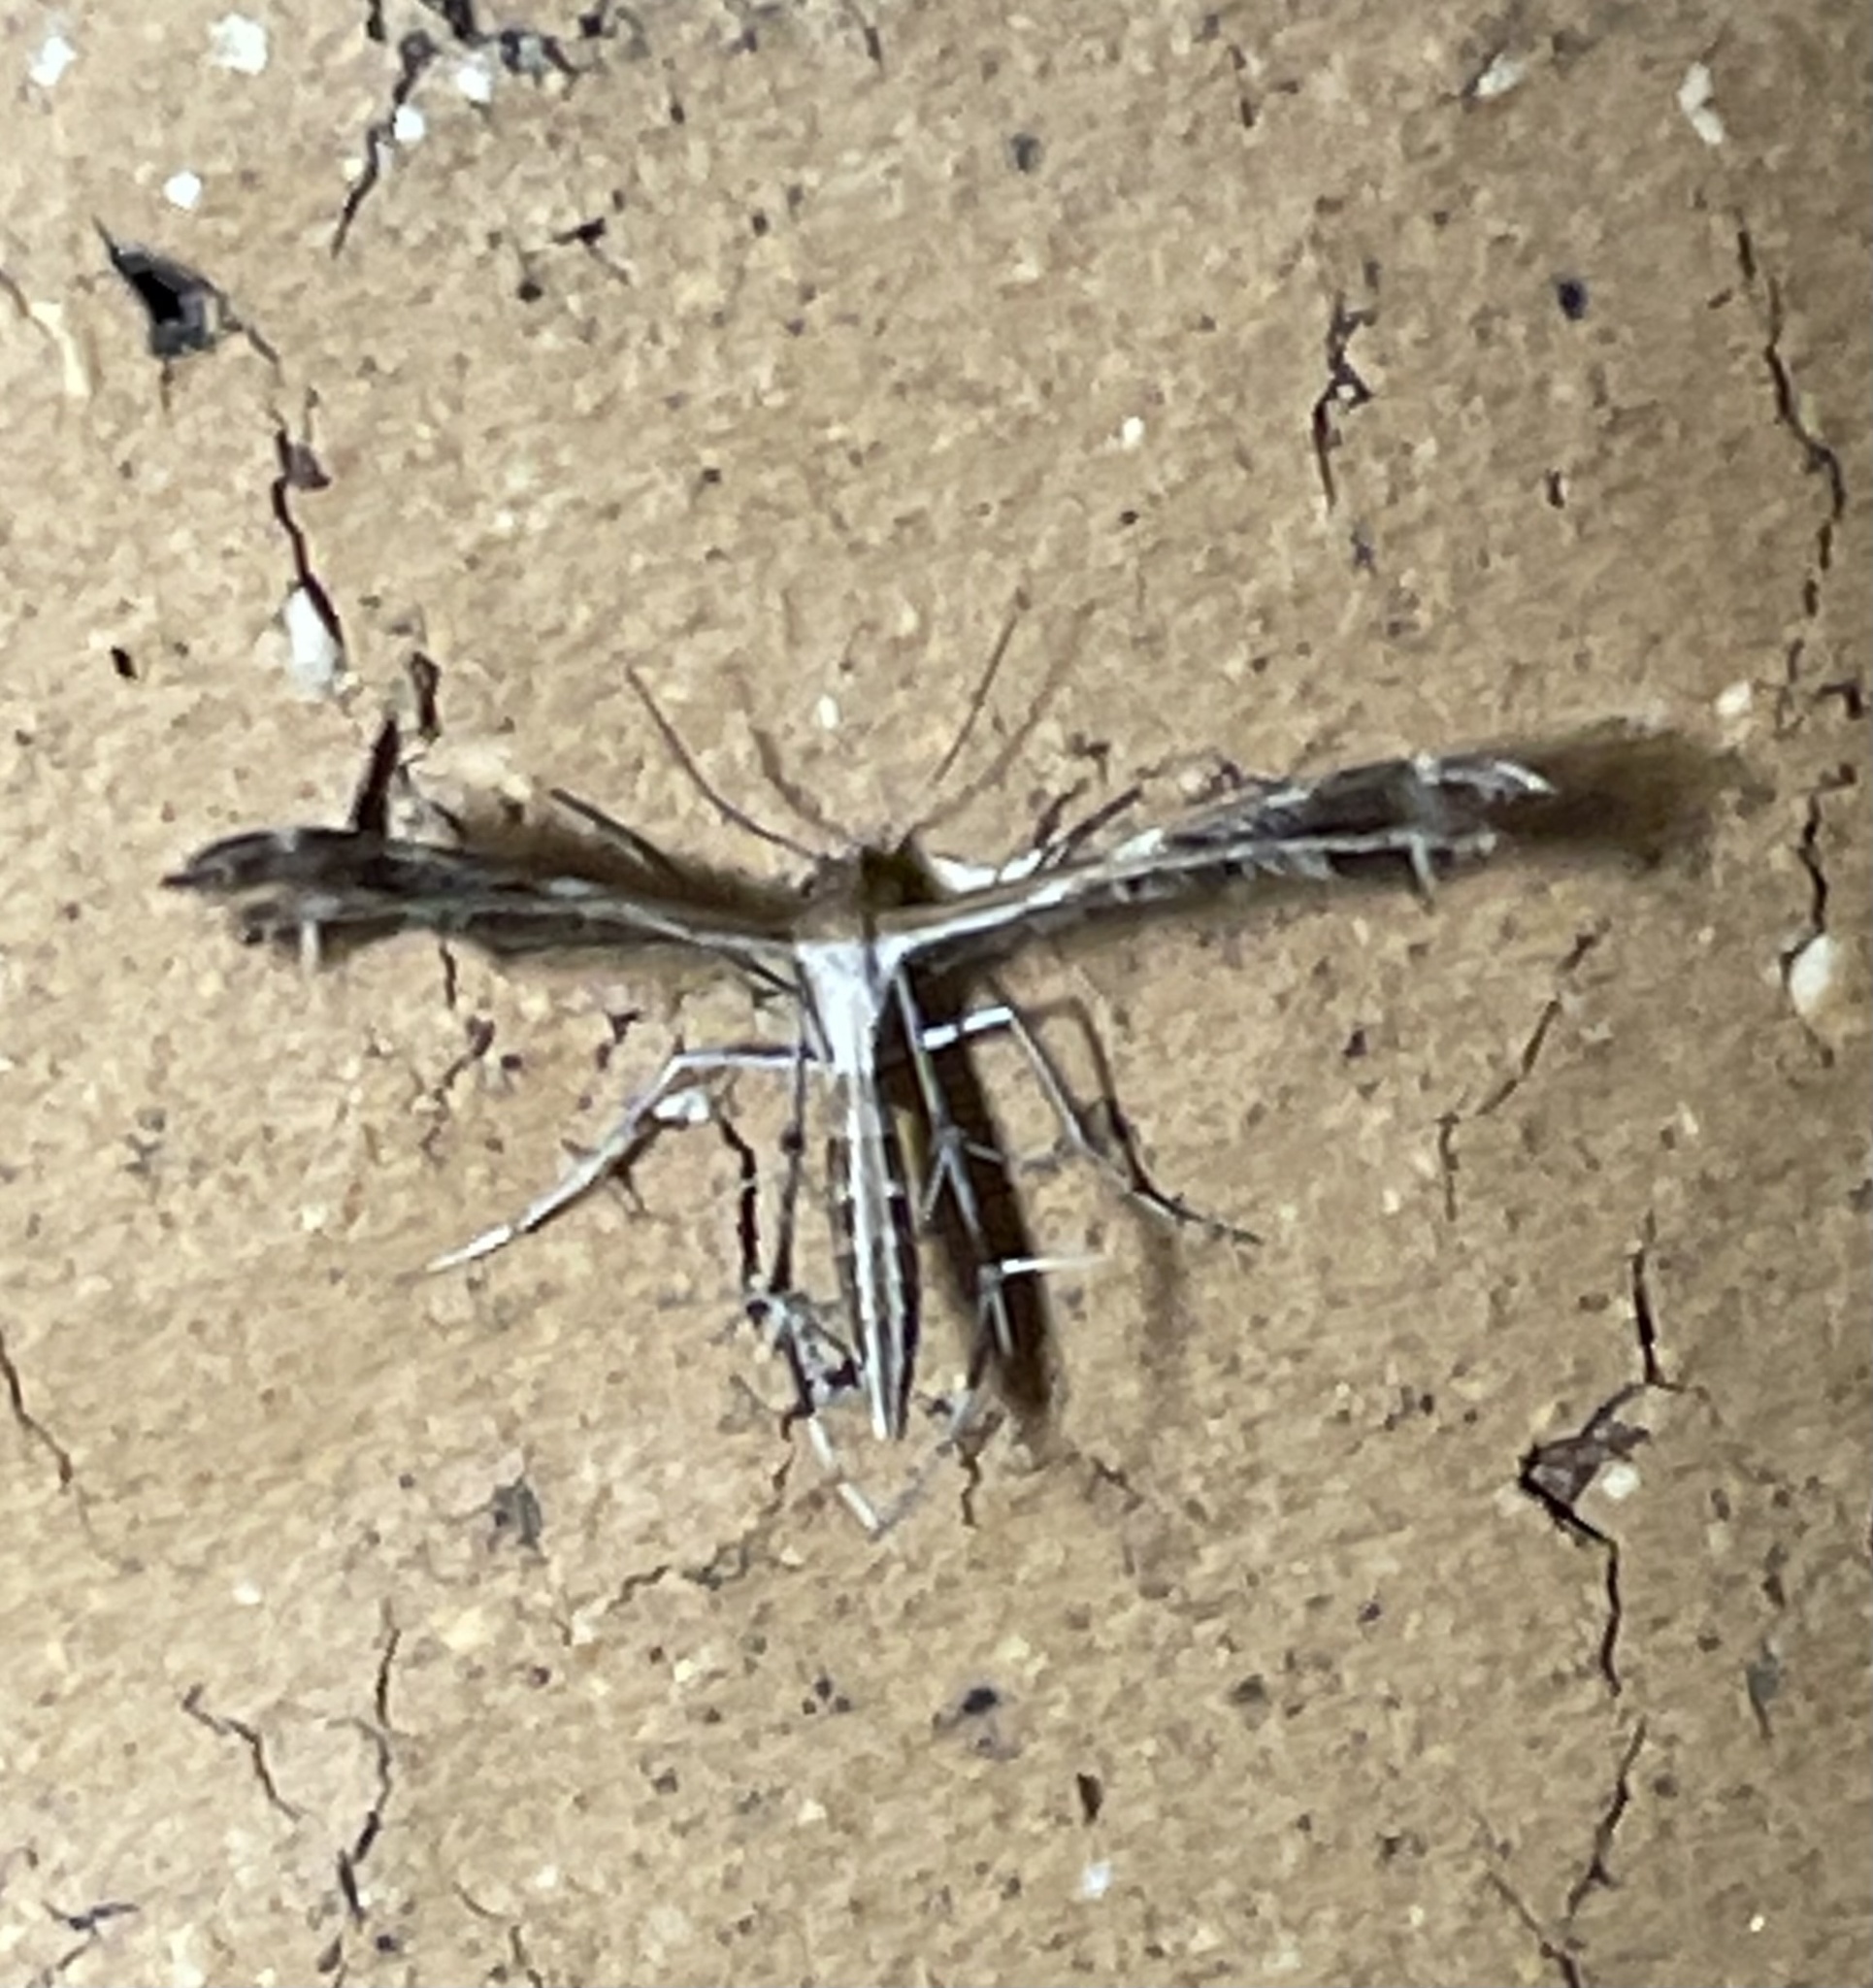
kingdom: Animalia
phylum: Arthropoda
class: Insecta
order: Lepidoptera
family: Pterophoridae
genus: Stangeia
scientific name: Stangeia xerodes
